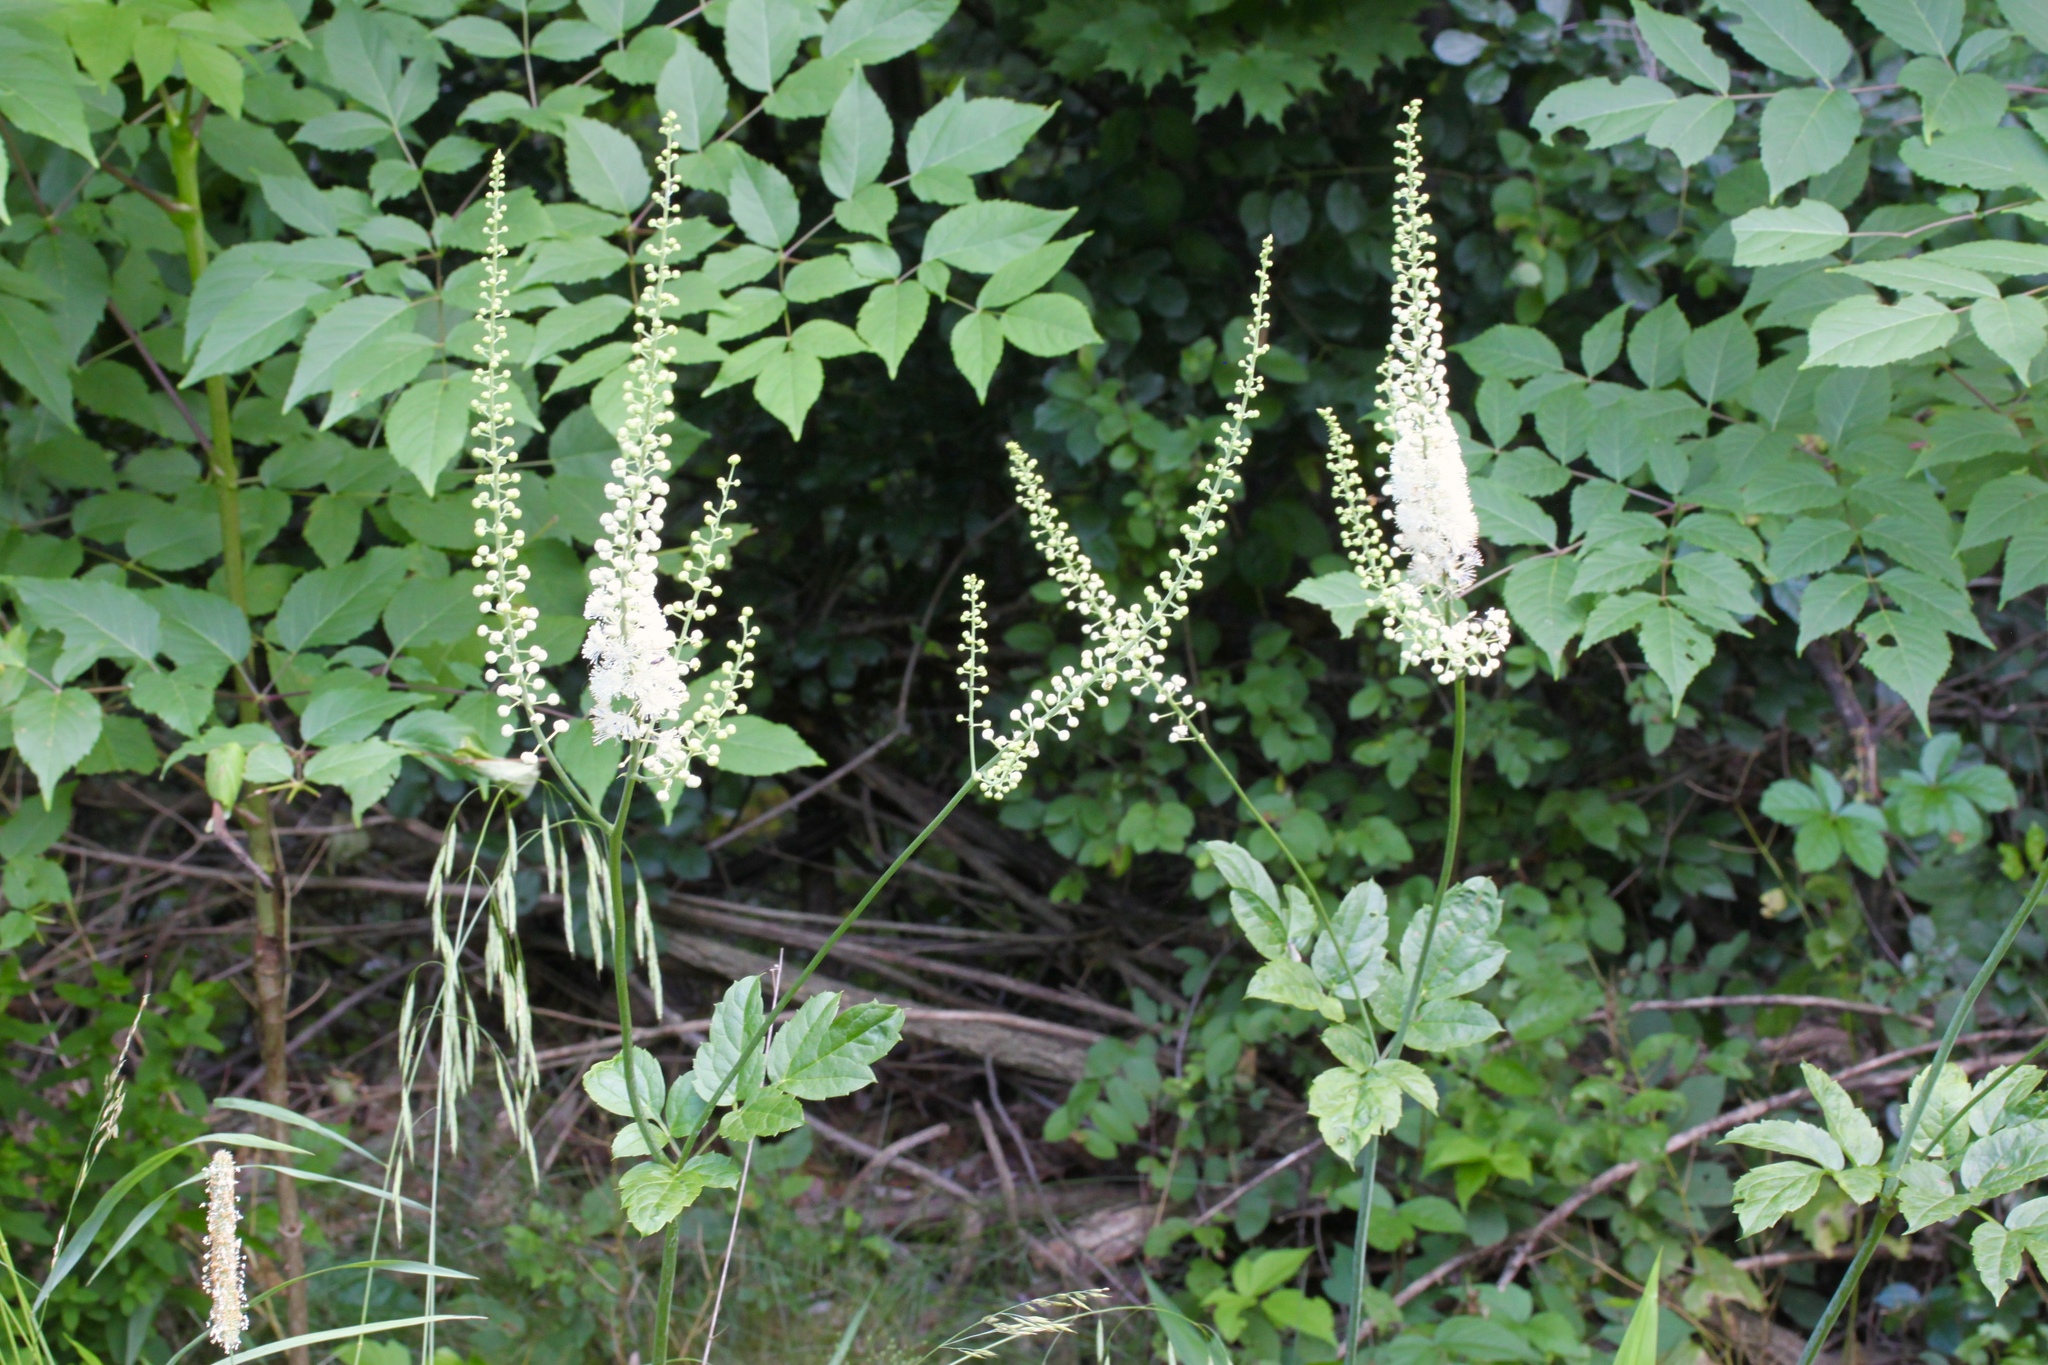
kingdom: Plantae
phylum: Tracheophyta
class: Magnoliopsida
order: Ranunculales
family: Ranunculaceae
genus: Actaea
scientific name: Actaea racemosa
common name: Black cohosh
